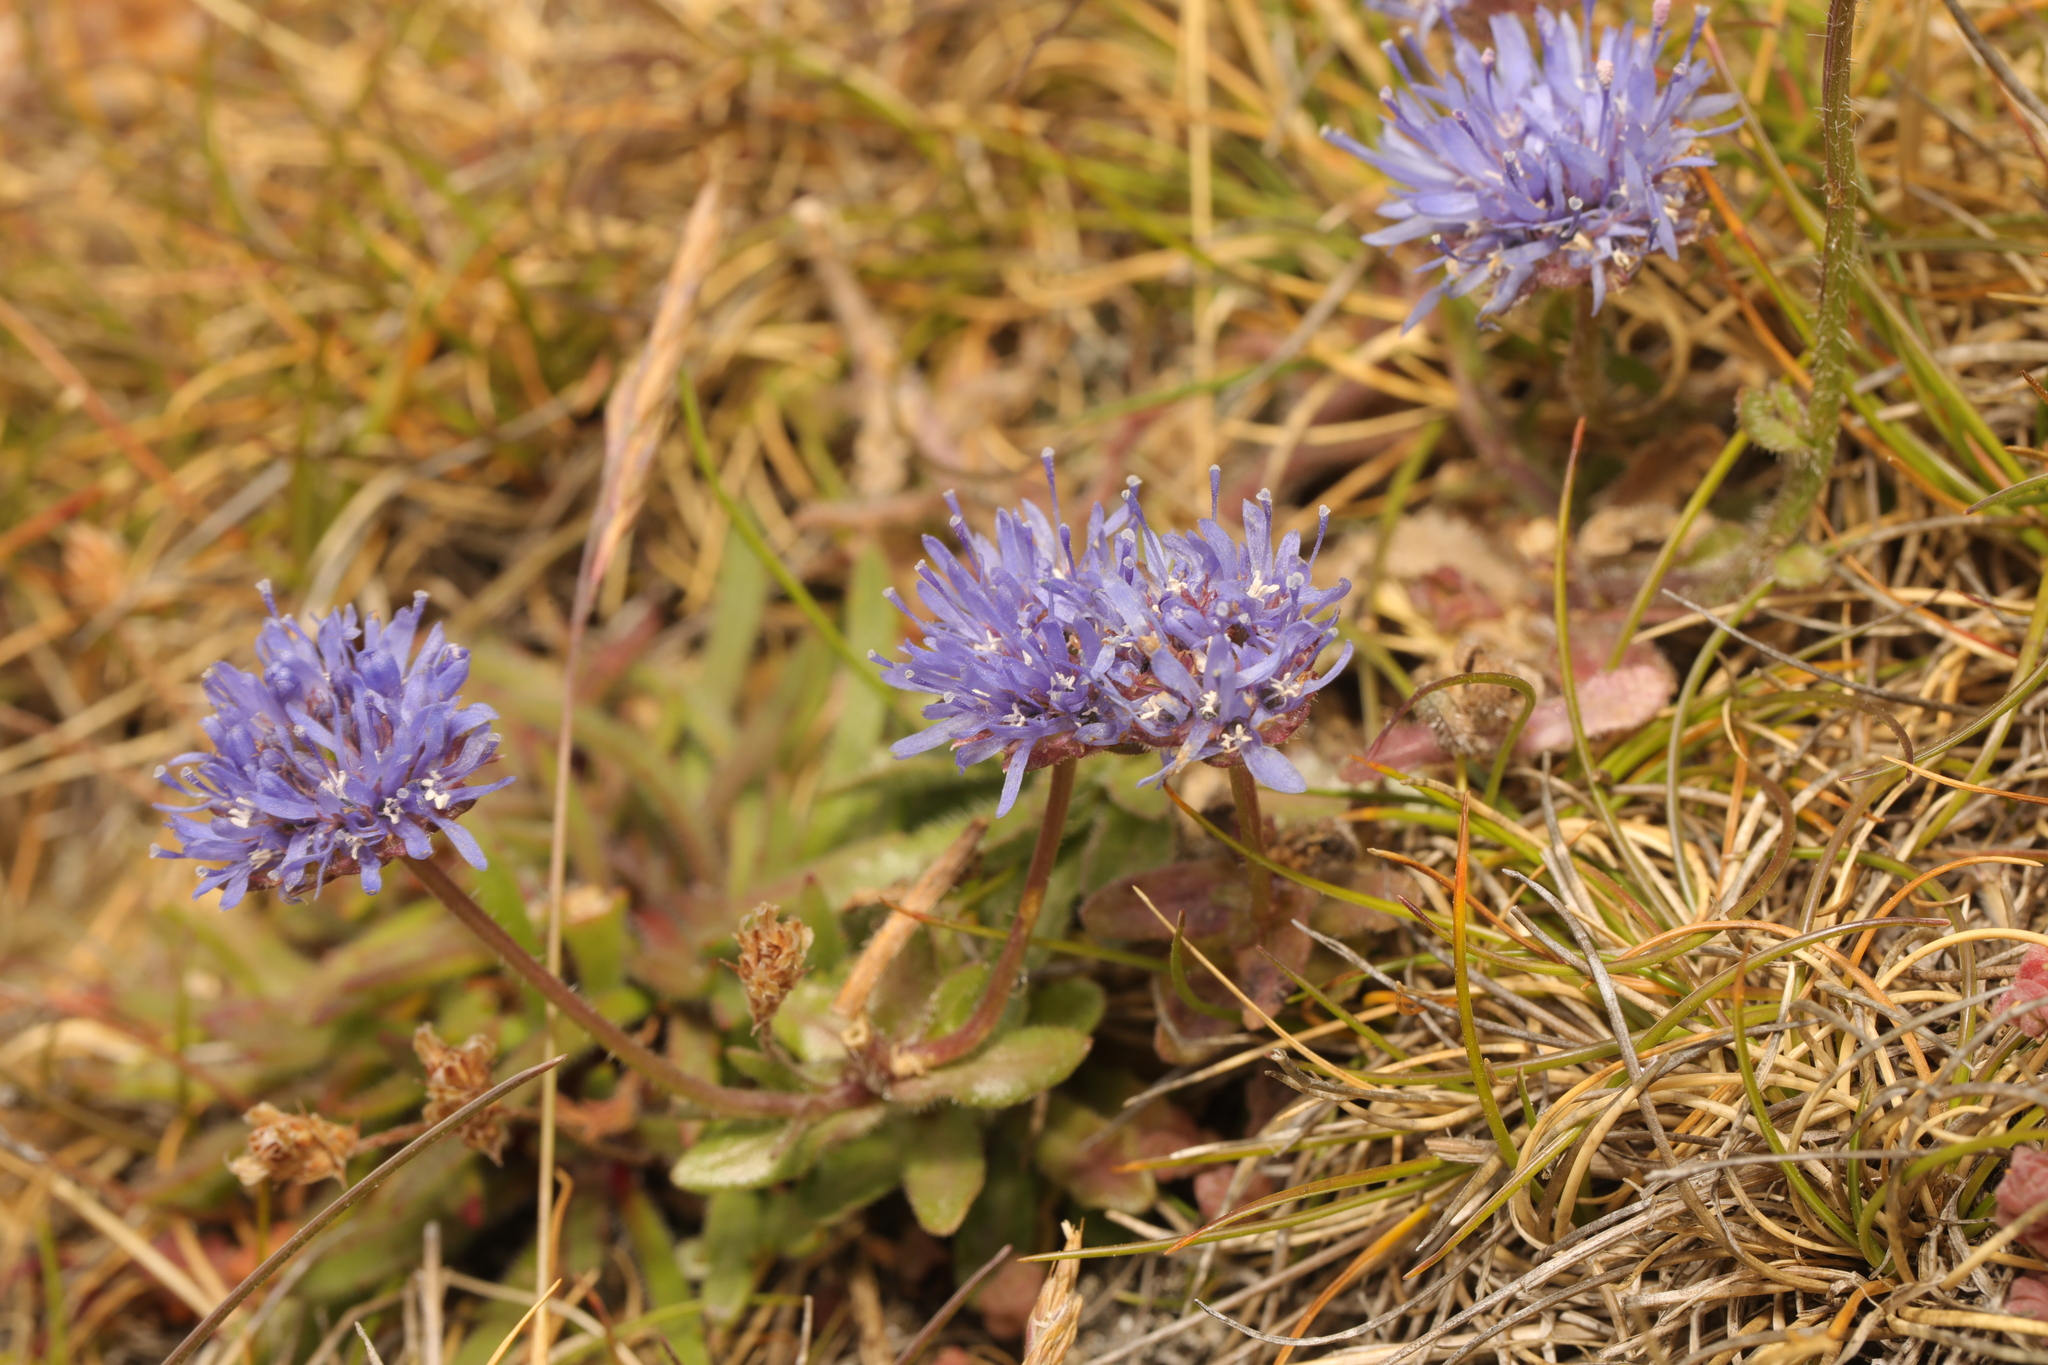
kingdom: Plantae
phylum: Tracheophyta
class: Magnoliopsida
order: Asterales
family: Campanulaceae
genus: Jasione
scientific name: Jasione montana
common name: Sheep's-bit
